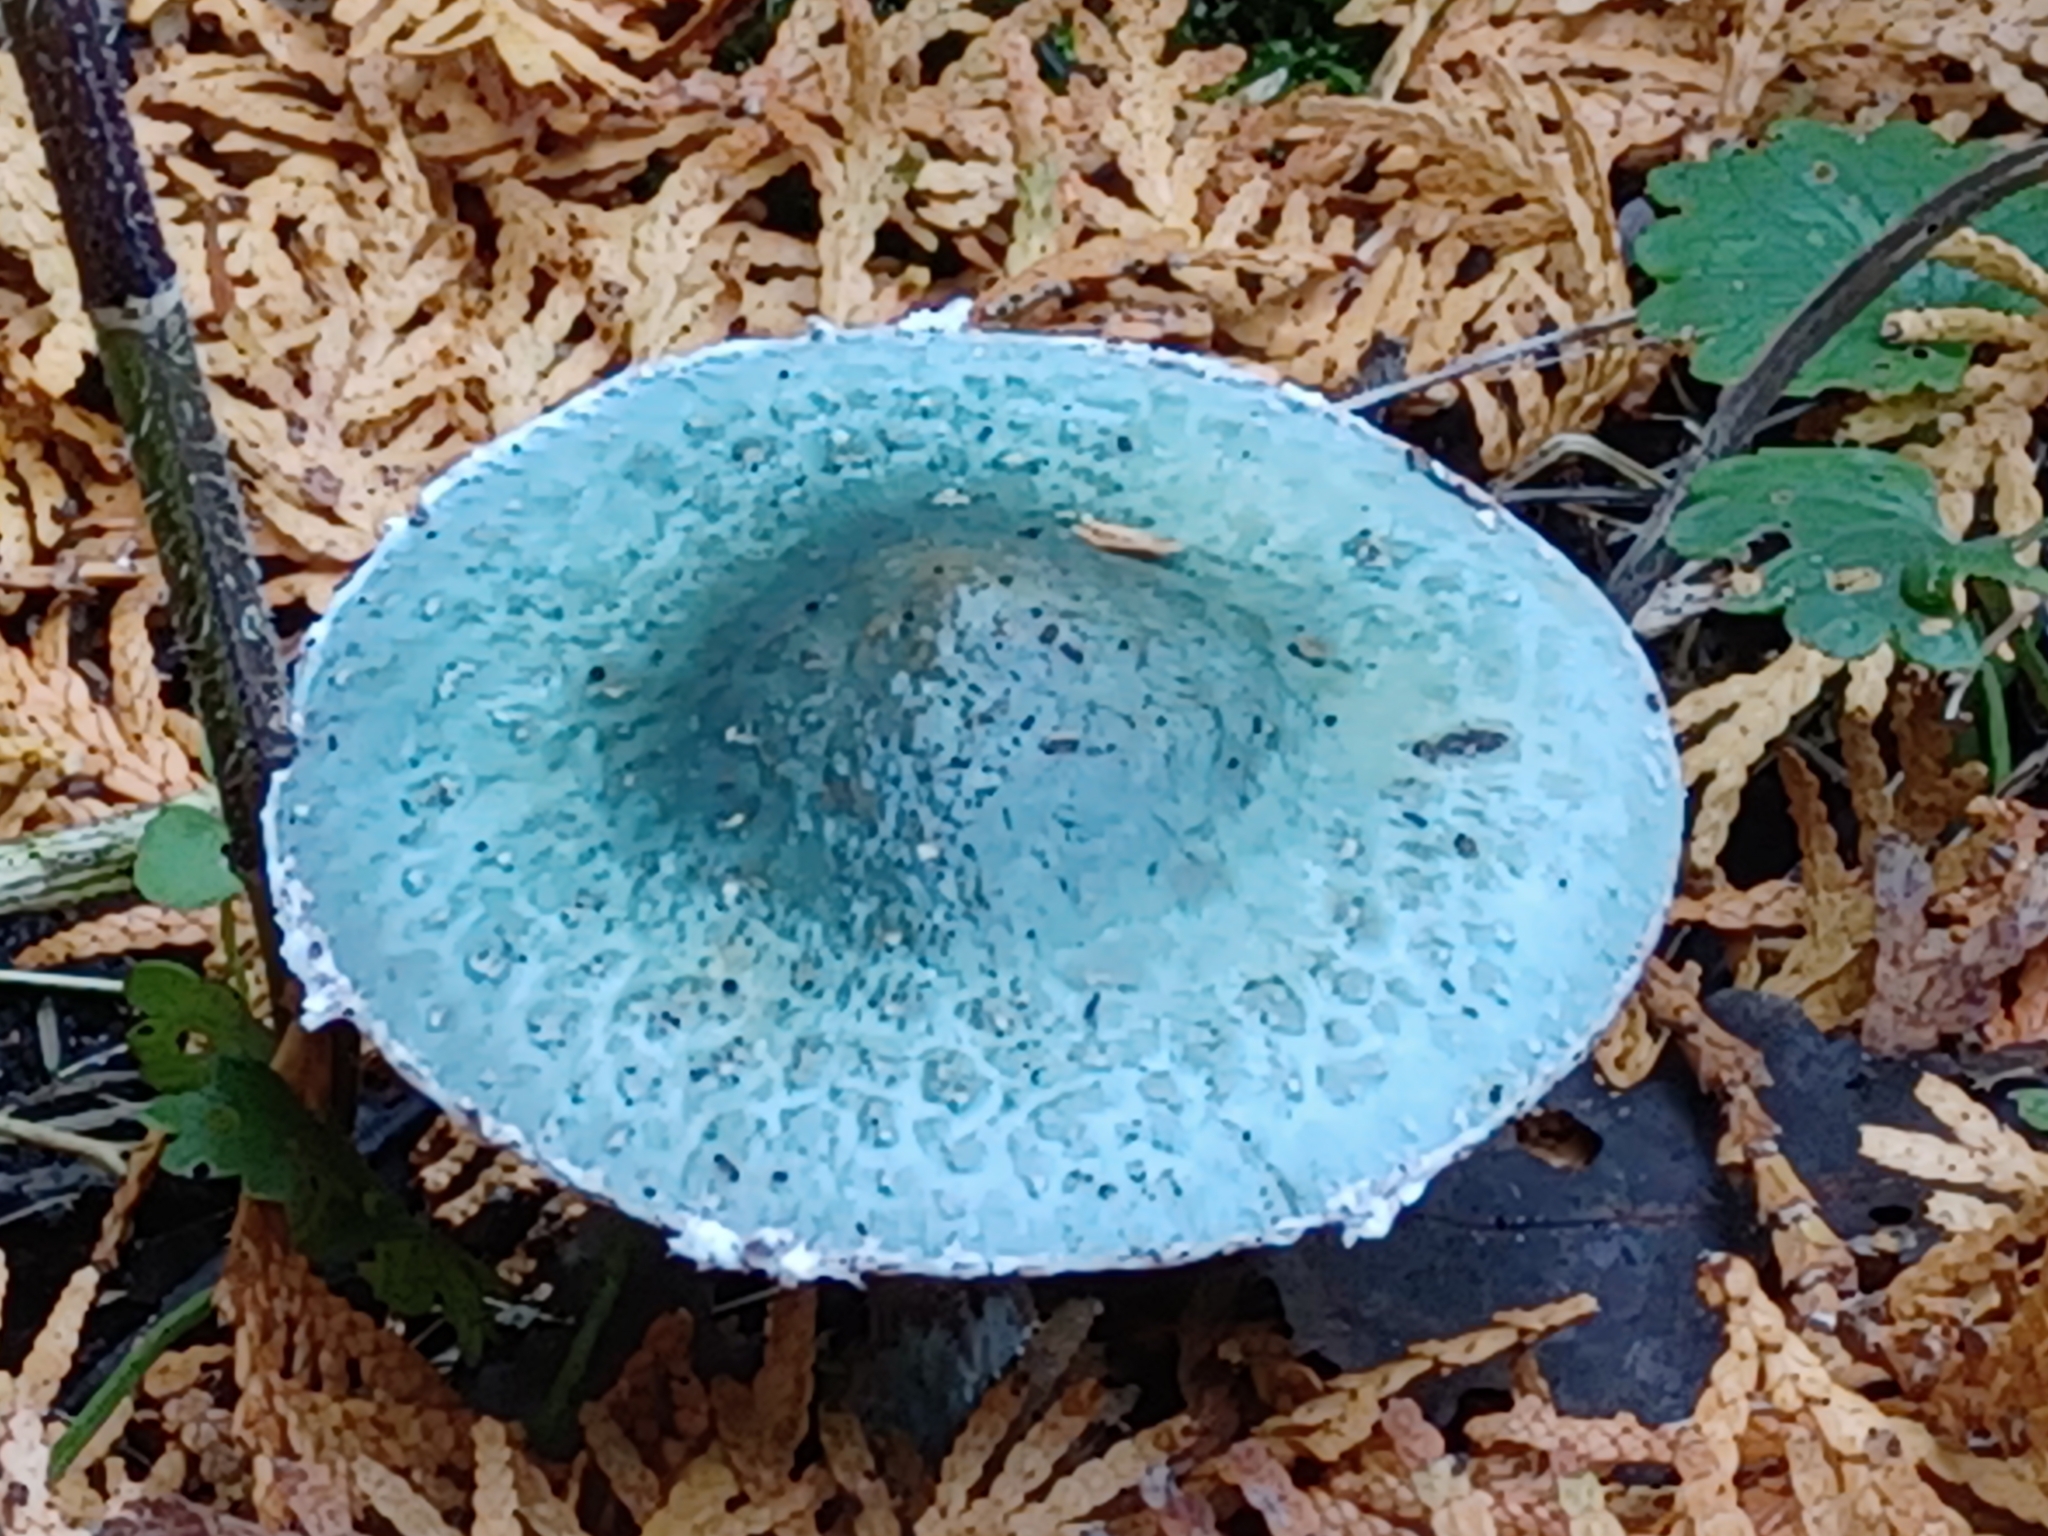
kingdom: Fungi
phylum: Basidiomycota
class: Agaricomycetes
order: Agaricales
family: Strophariaceae
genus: Stropharia
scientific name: Stropharia caerulea
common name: Blue roundhead
